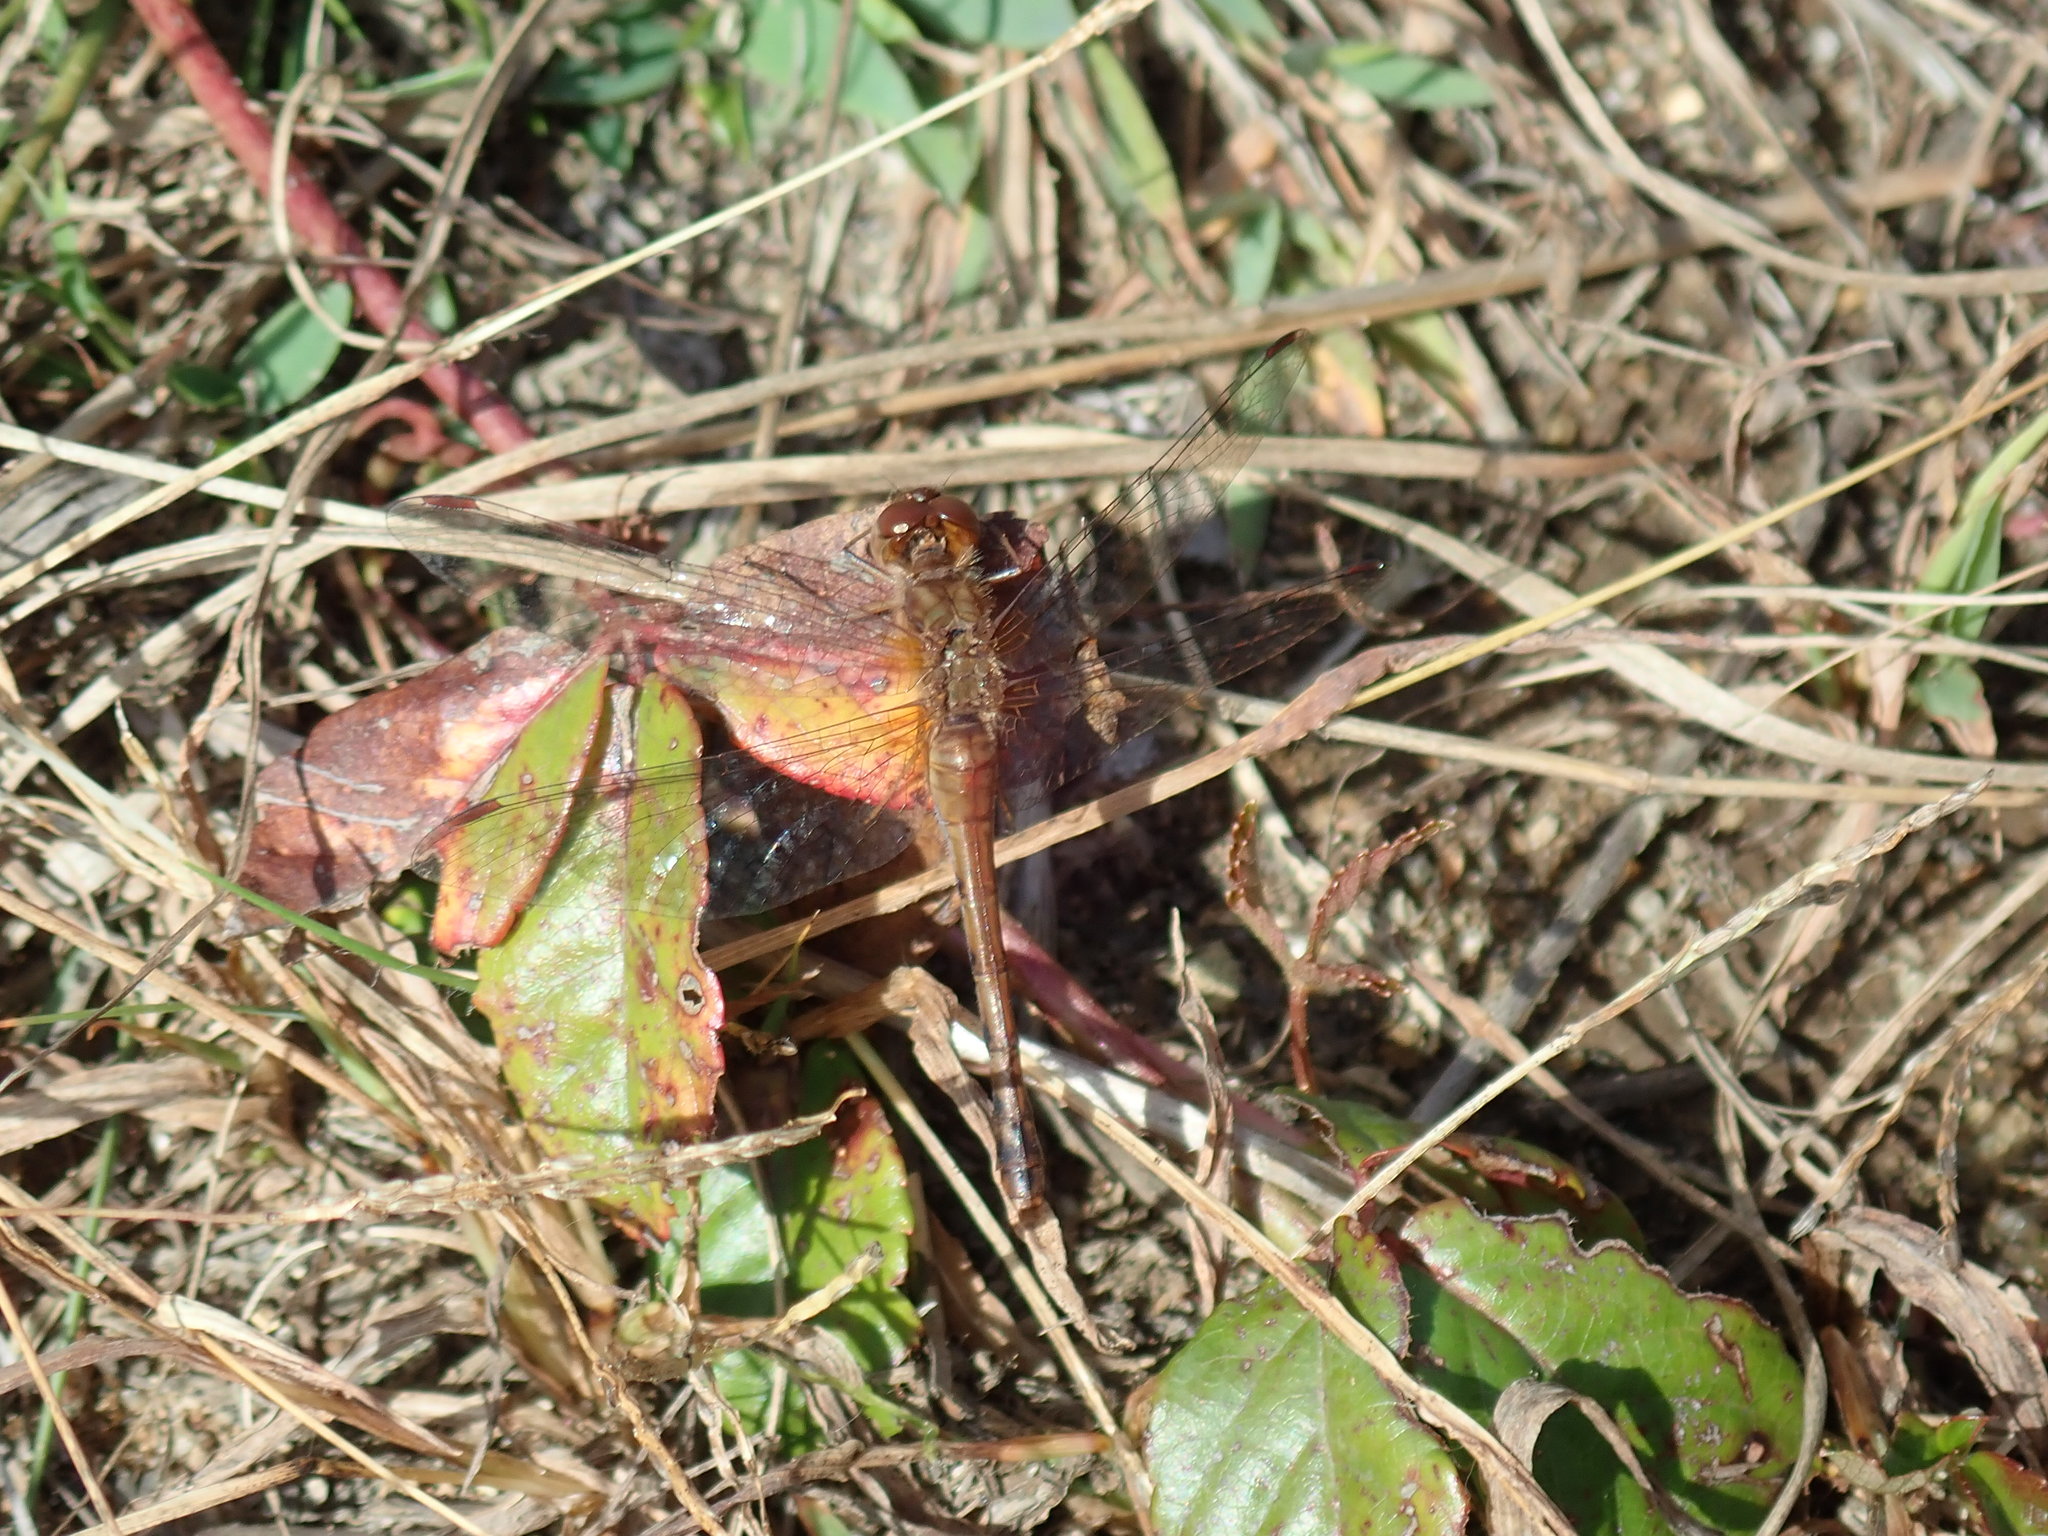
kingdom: Animalia
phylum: Arthropoda
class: Insecta
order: Odonata
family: Libellulidae
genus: Sympetrum
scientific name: Sympetrum vicinum
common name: Autumn meadowhawk
